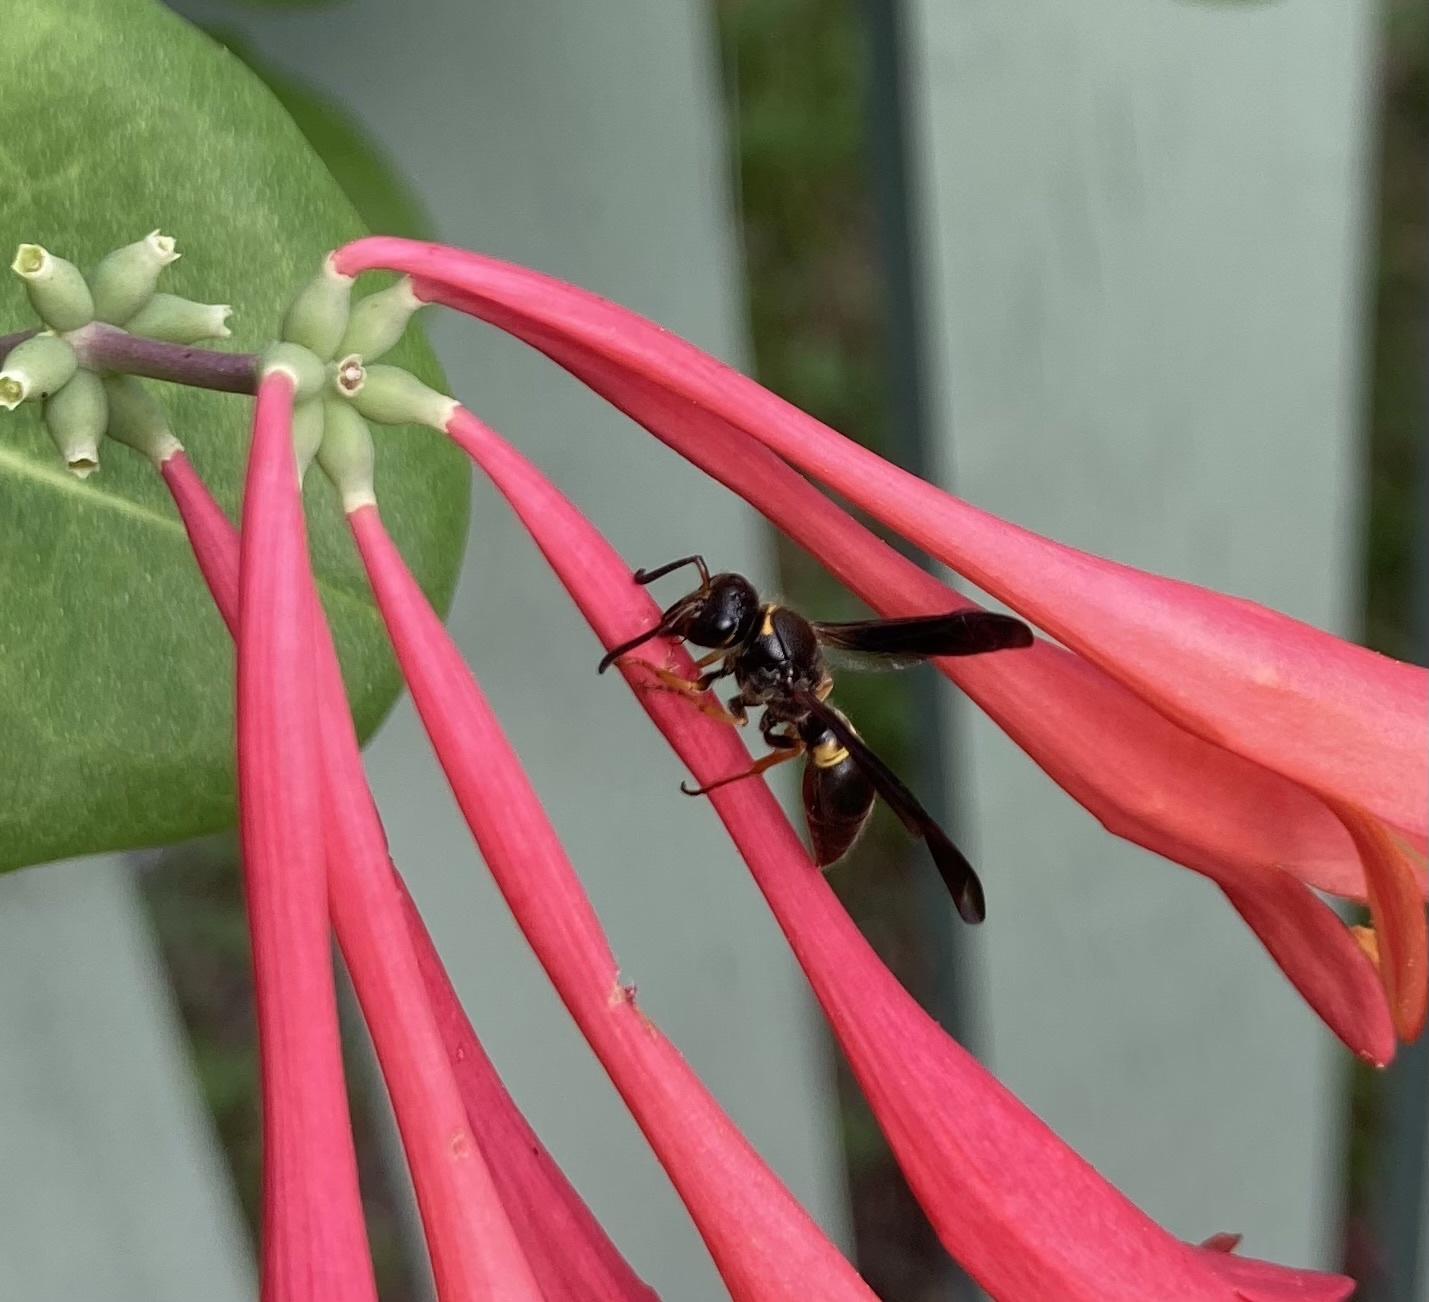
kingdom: Animalia
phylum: Arthropoda
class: Insecta
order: Hymenoptera
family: Vespidae
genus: Ancistrocerus
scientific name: Ancistrocerus unifasciatus
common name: One-banded mason wasp
